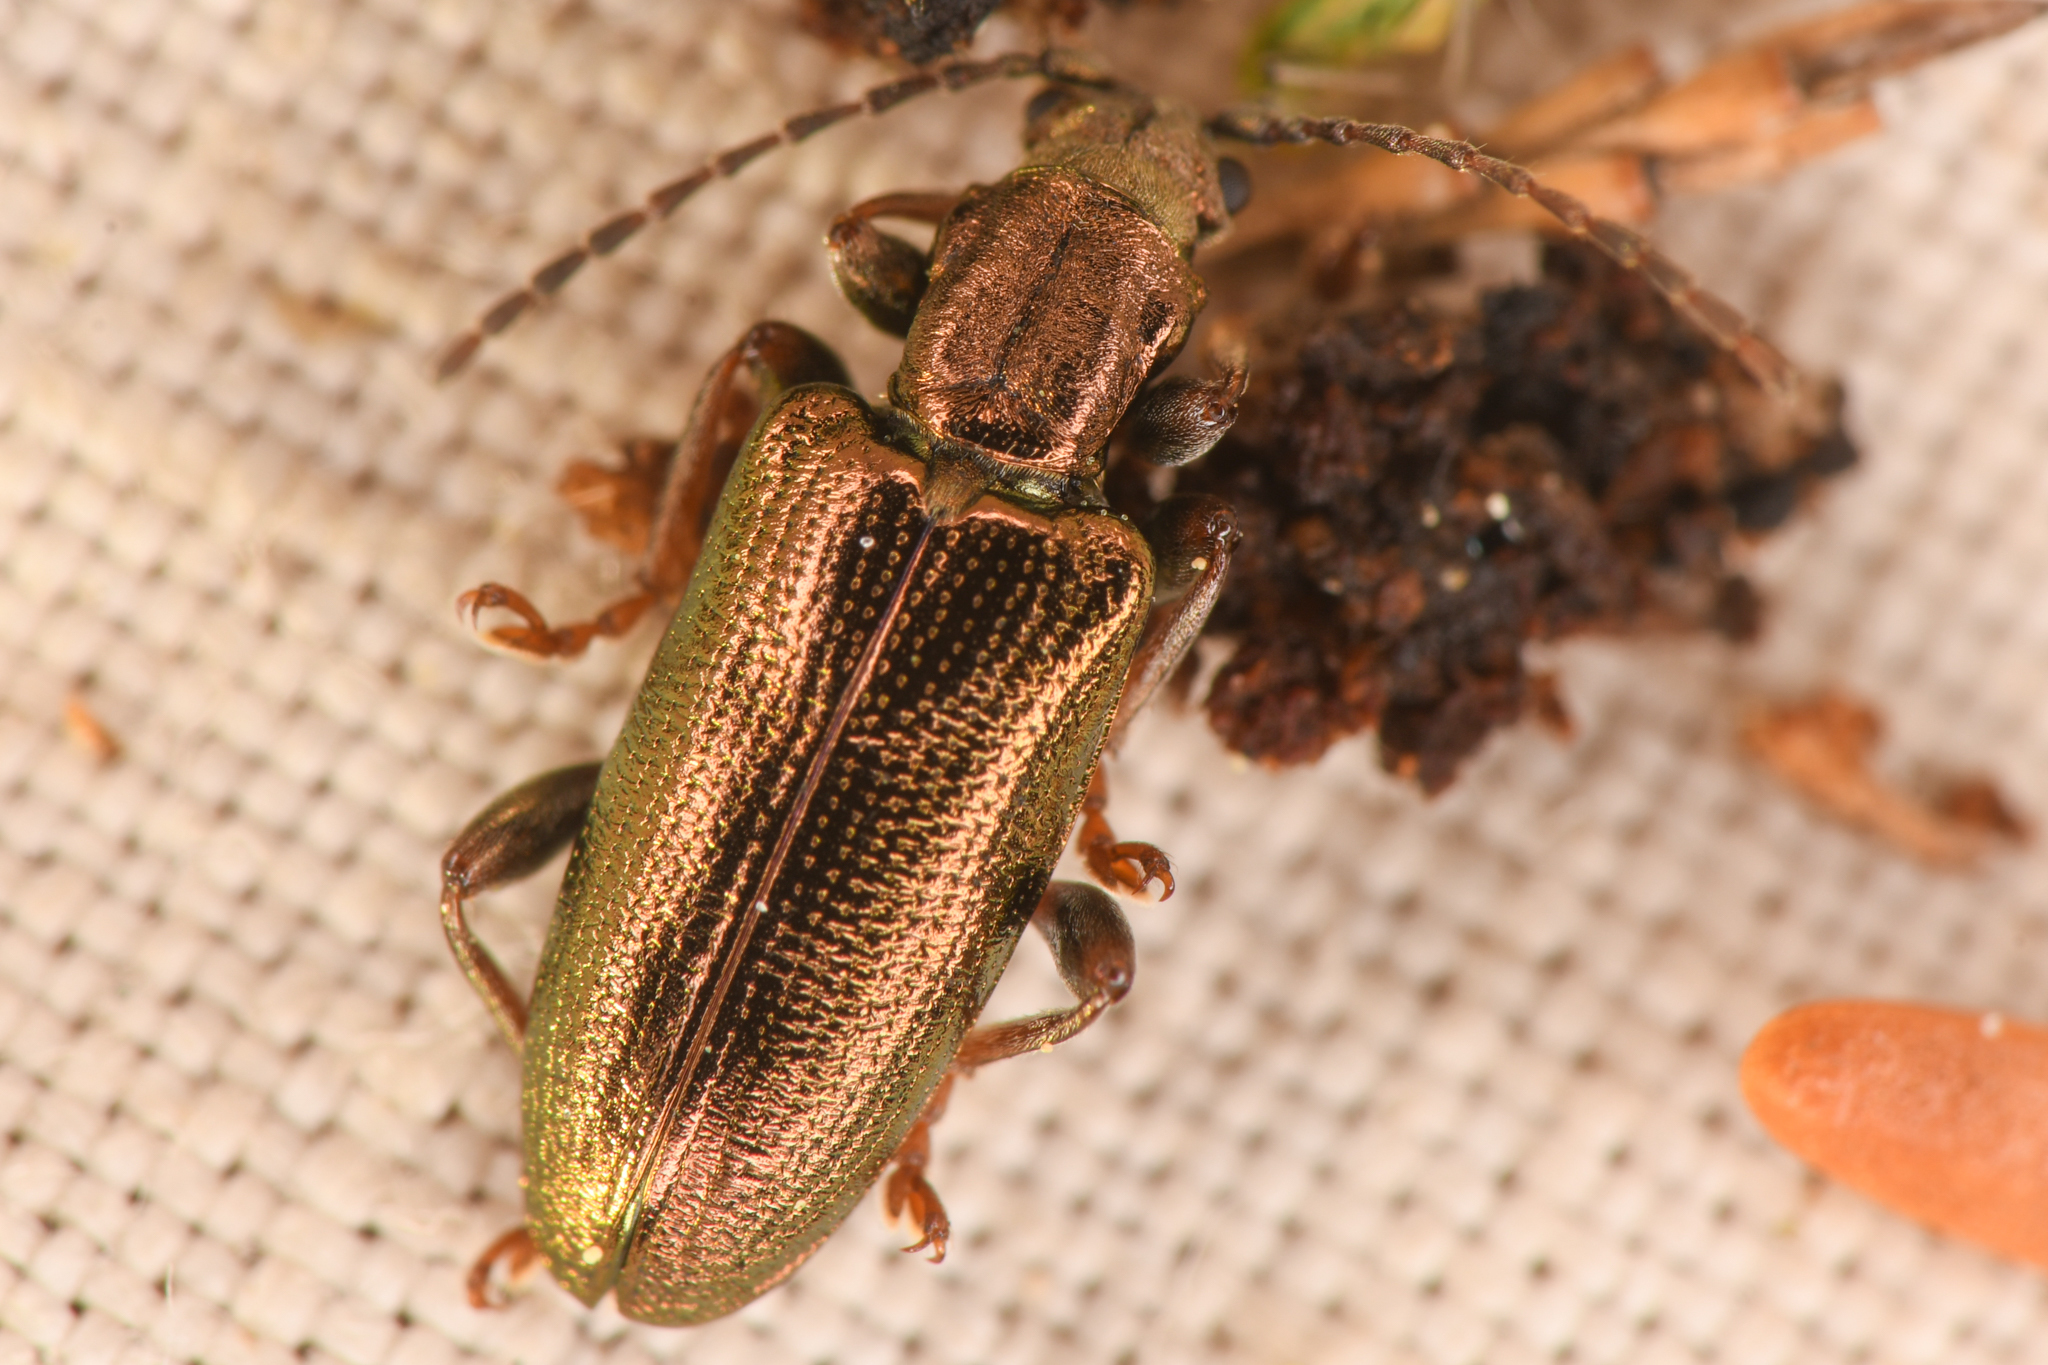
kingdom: Animalia
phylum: Arthropoda
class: Insecta
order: Coleoptera
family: Chrysomelidae
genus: Plateumaris
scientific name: Plateumaris neomexicana
